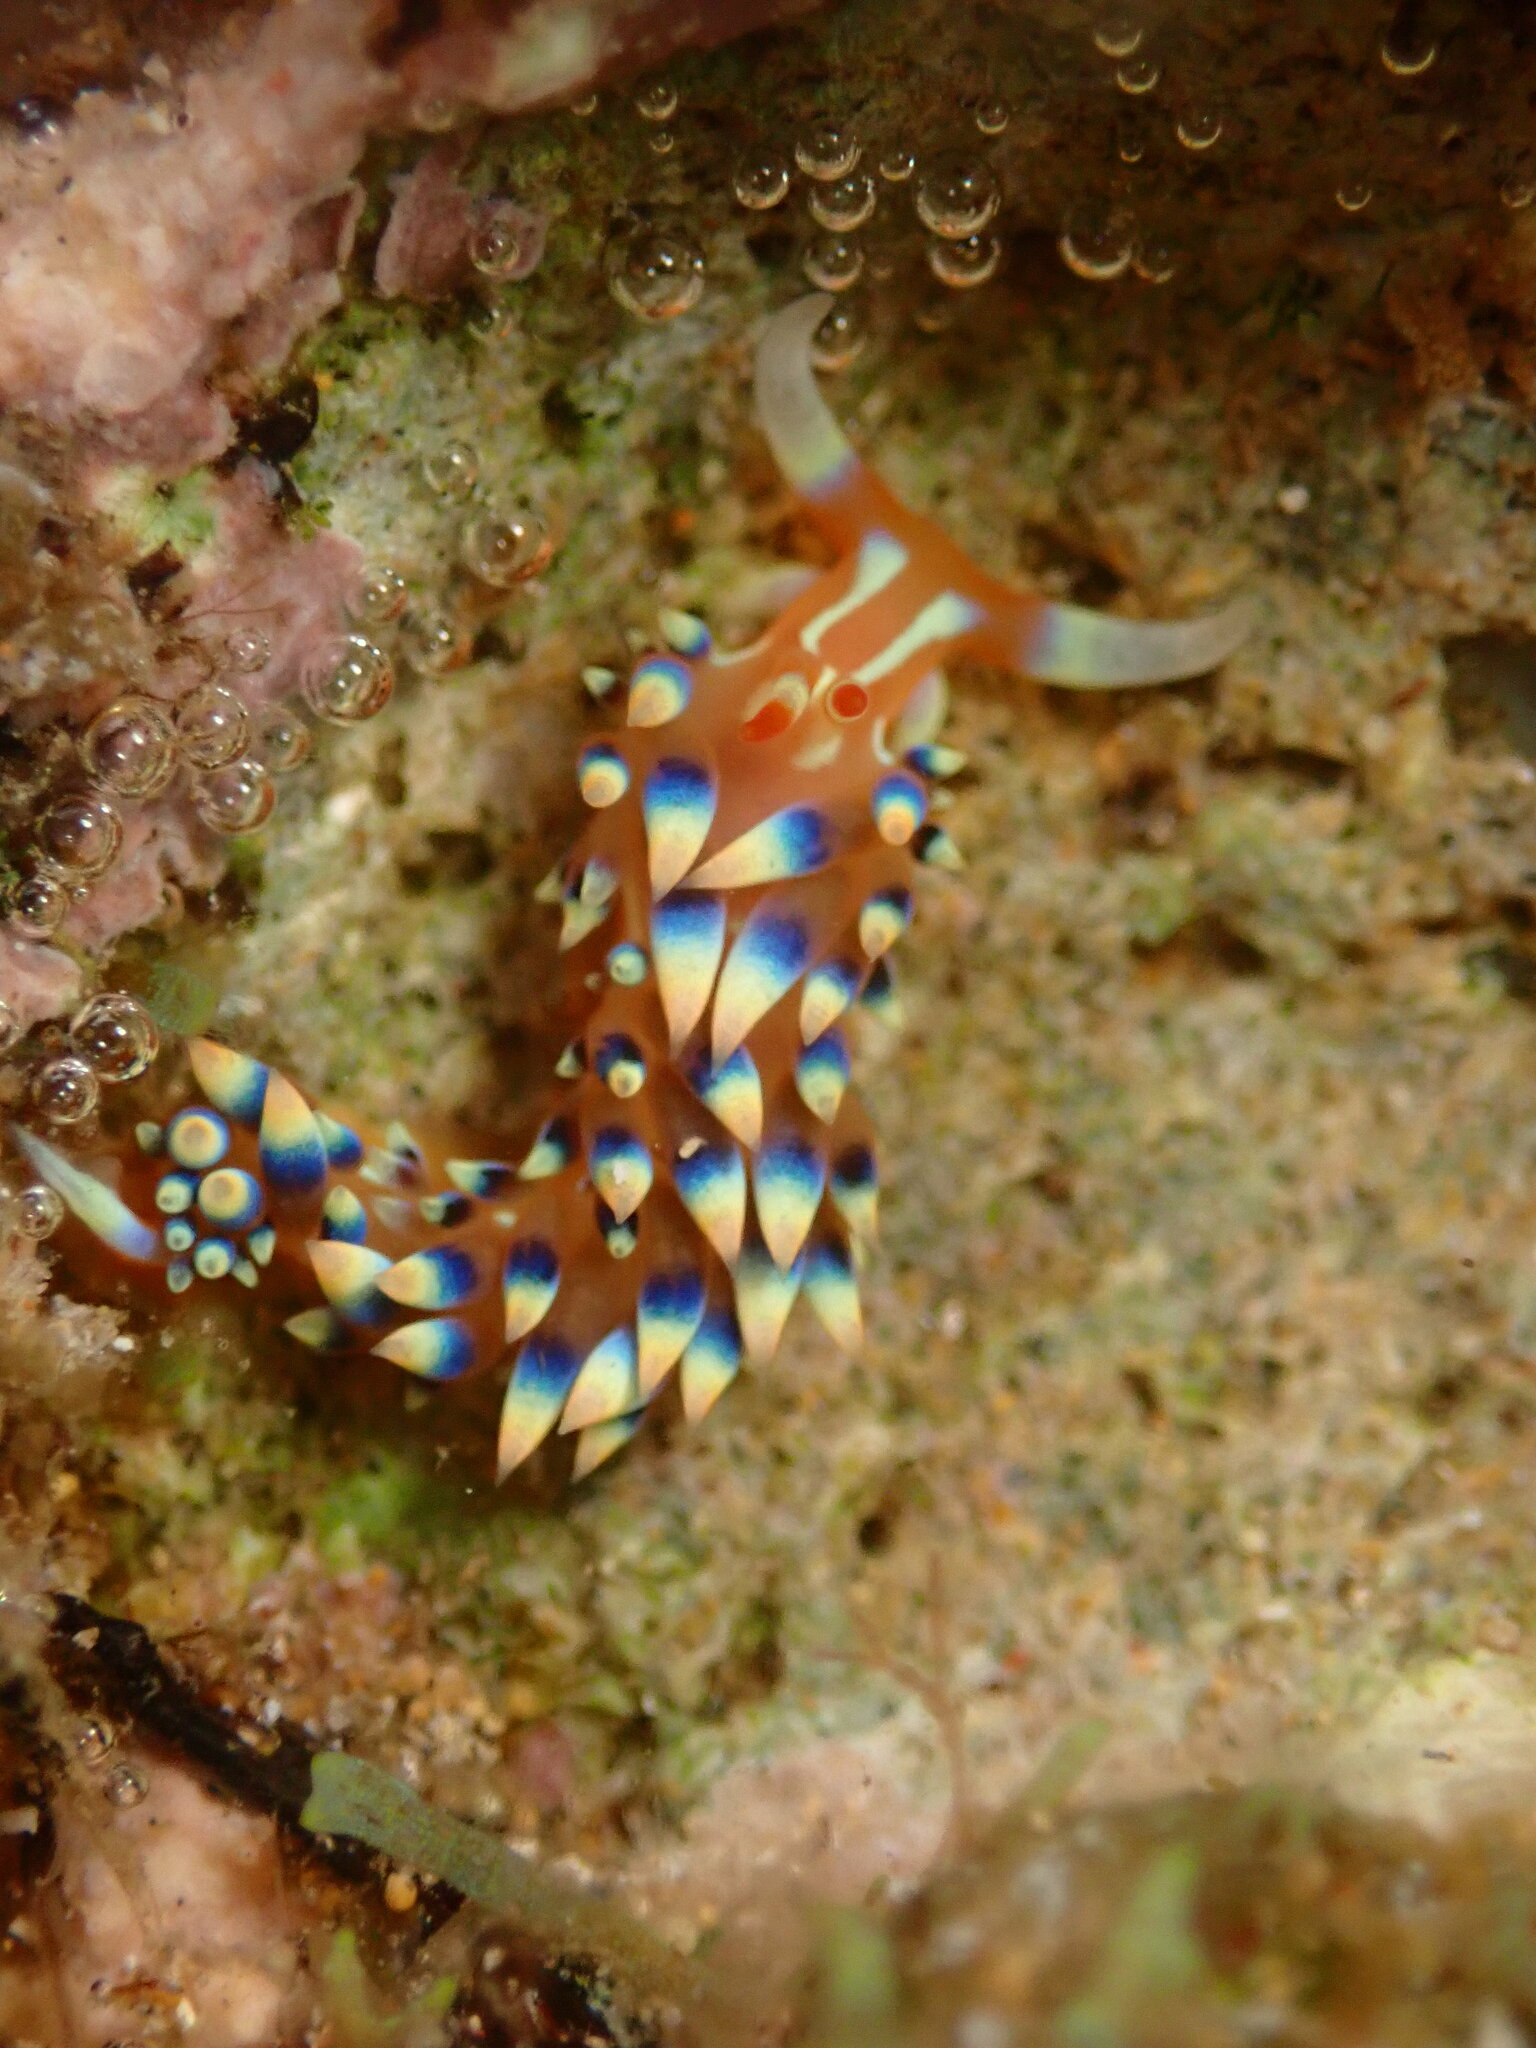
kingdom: Animalia
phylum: Mollusca
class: Gastropoda
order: Nudibranchia
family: Facelinidae
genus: Caloria
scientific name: Caloria indica
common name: Sea slug
